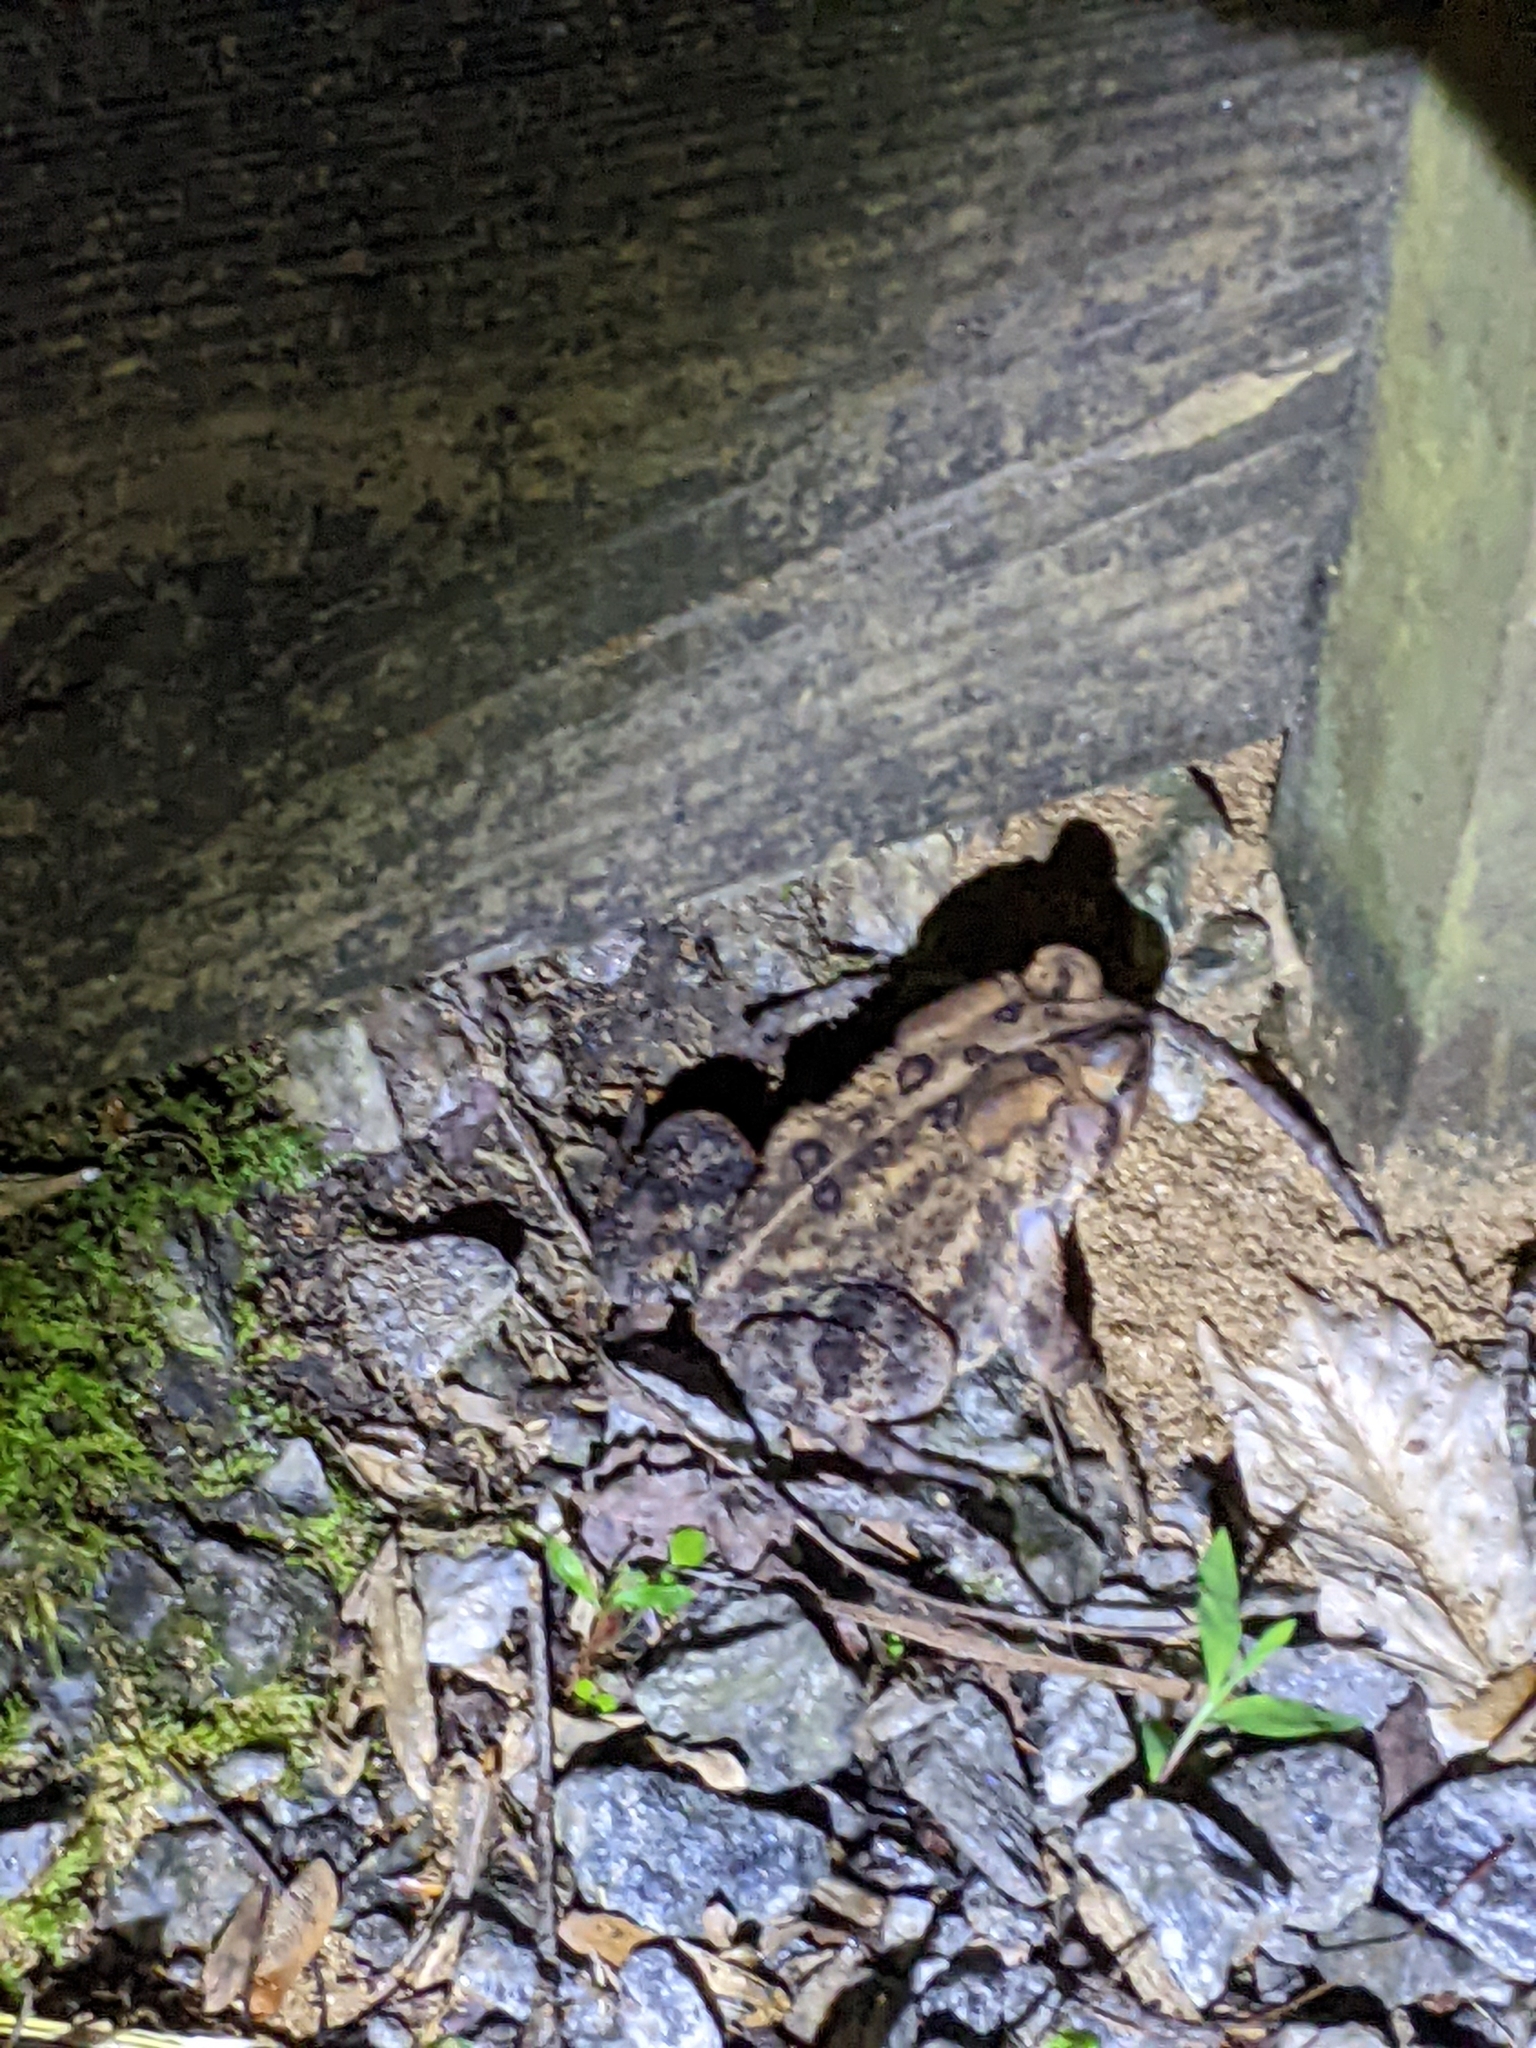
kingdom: Animalia
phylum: Chordata
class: Amphibia
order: Anura
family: Bufonidae
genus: Anaxyrus
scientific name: Anaxyrus americanus
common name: American toad
